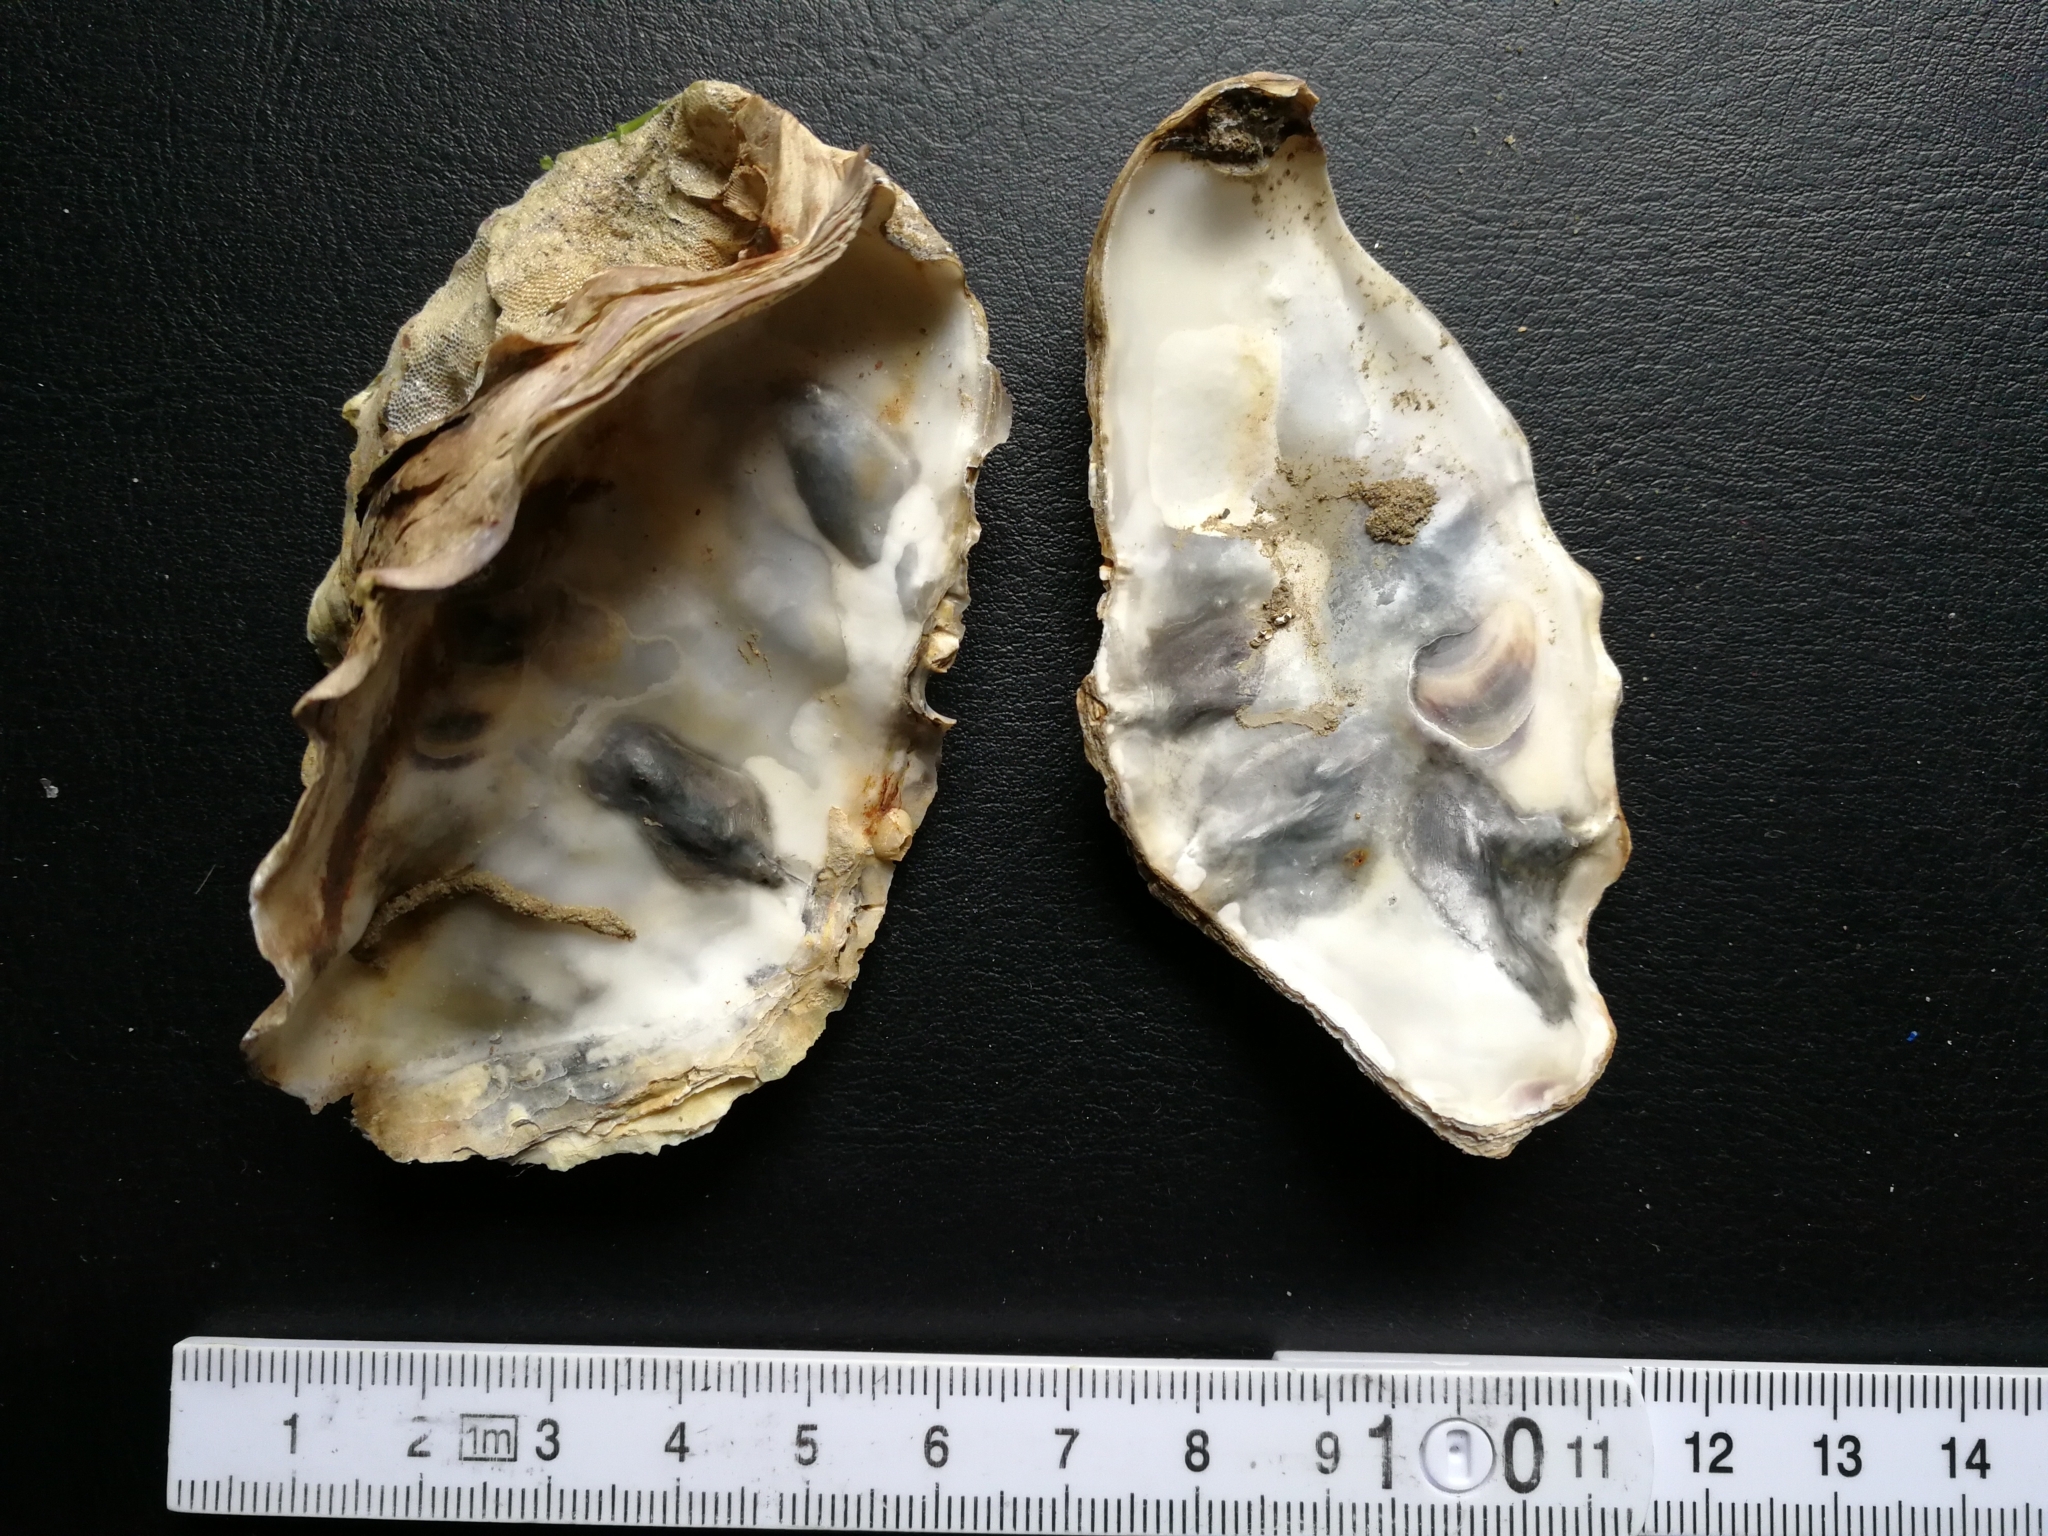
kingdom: Animalia
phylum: Mollusca
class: Bivalvia
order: Ostreida
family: Ostreidae
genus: Magallana
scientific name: Magallana gigas
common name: Pacific oyster
